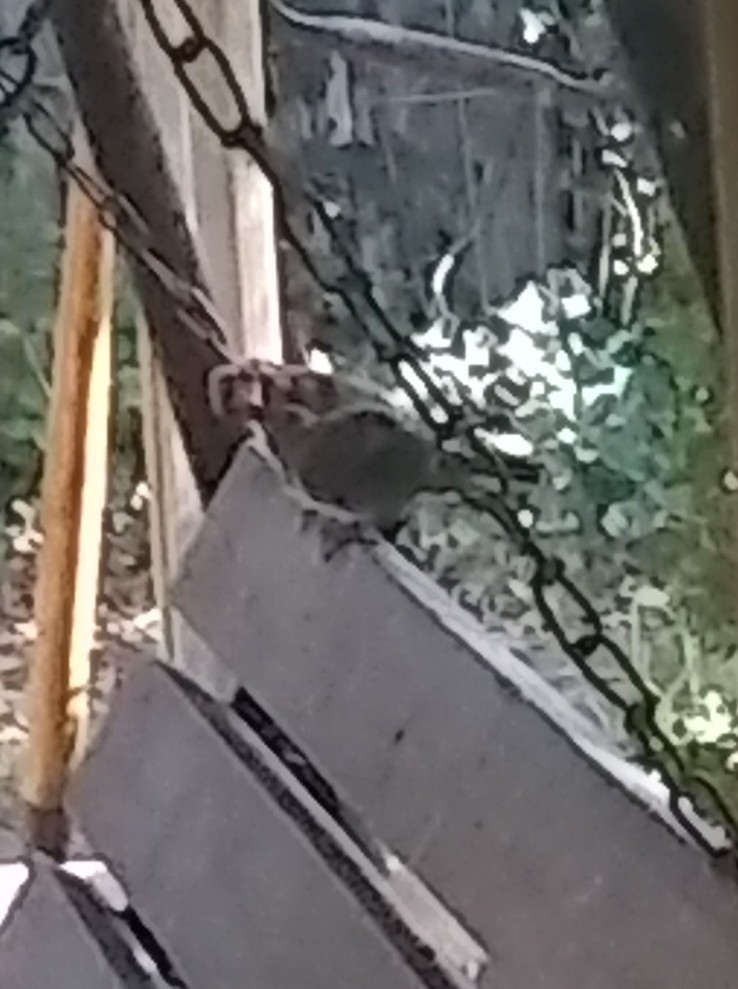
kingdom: Animalia
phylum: Chordata
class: Aves
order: Passeriformes
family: Cardinalidae
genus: Cardinalis
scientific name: Cardinalis cardinalis
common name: Northern cardinal
